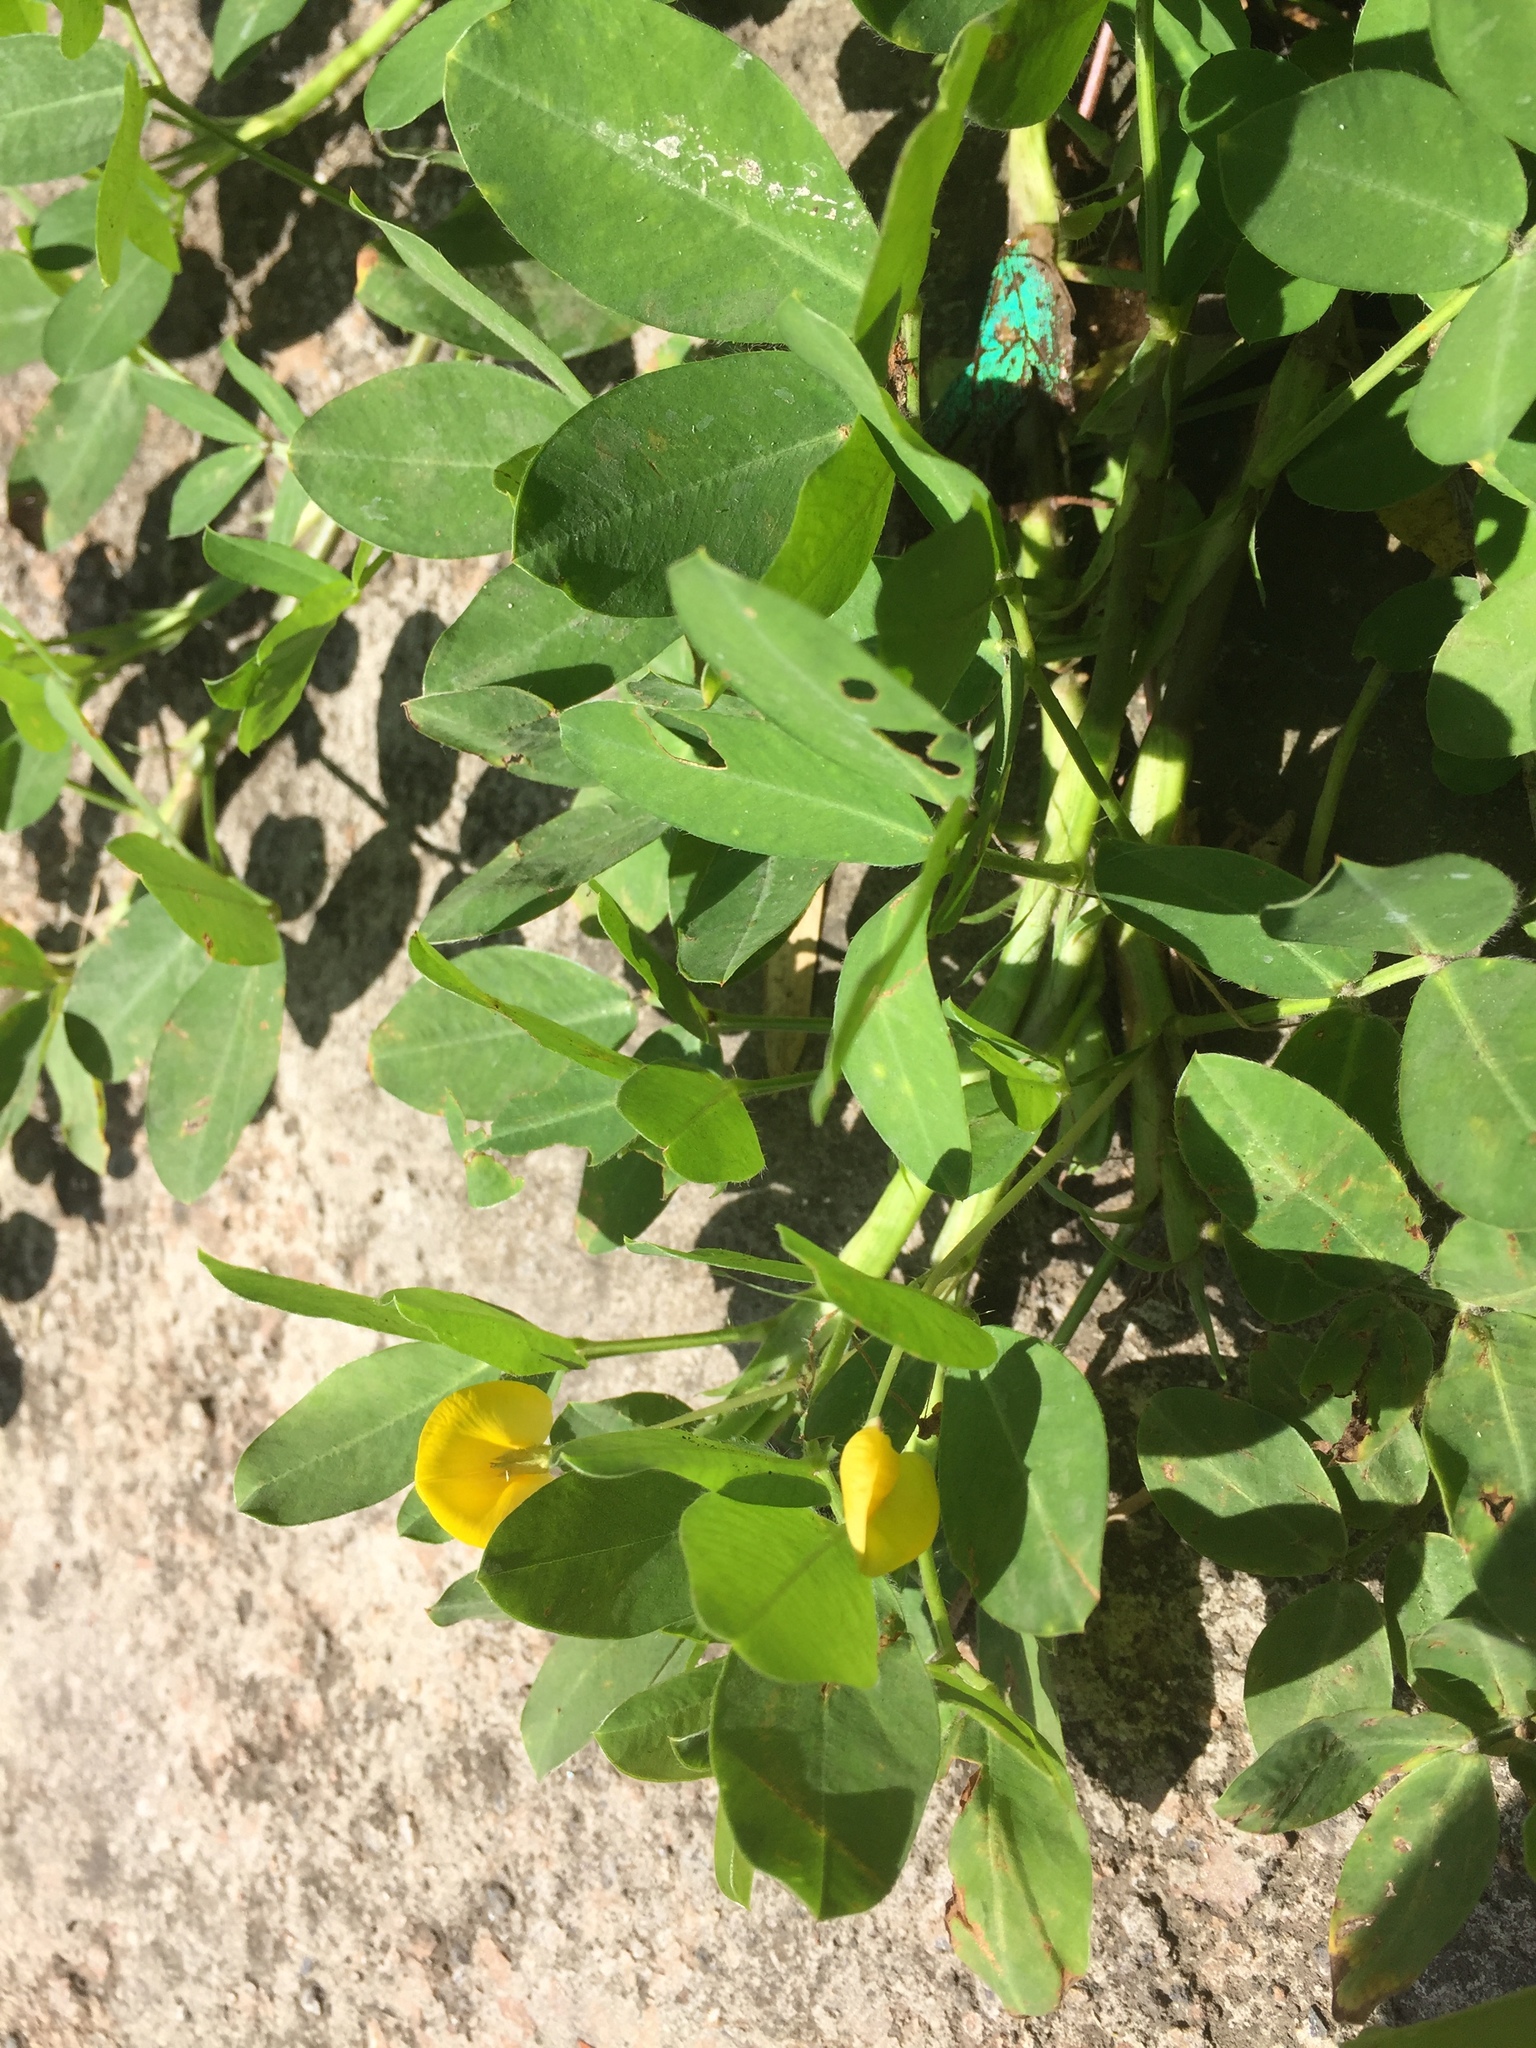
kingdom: Plantae
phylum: Tracheophyta
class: Magnoliopsida
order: Fabales
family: Fabaceae
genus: Arachis
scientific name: Arachis pintoi
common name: Pinto peanut
